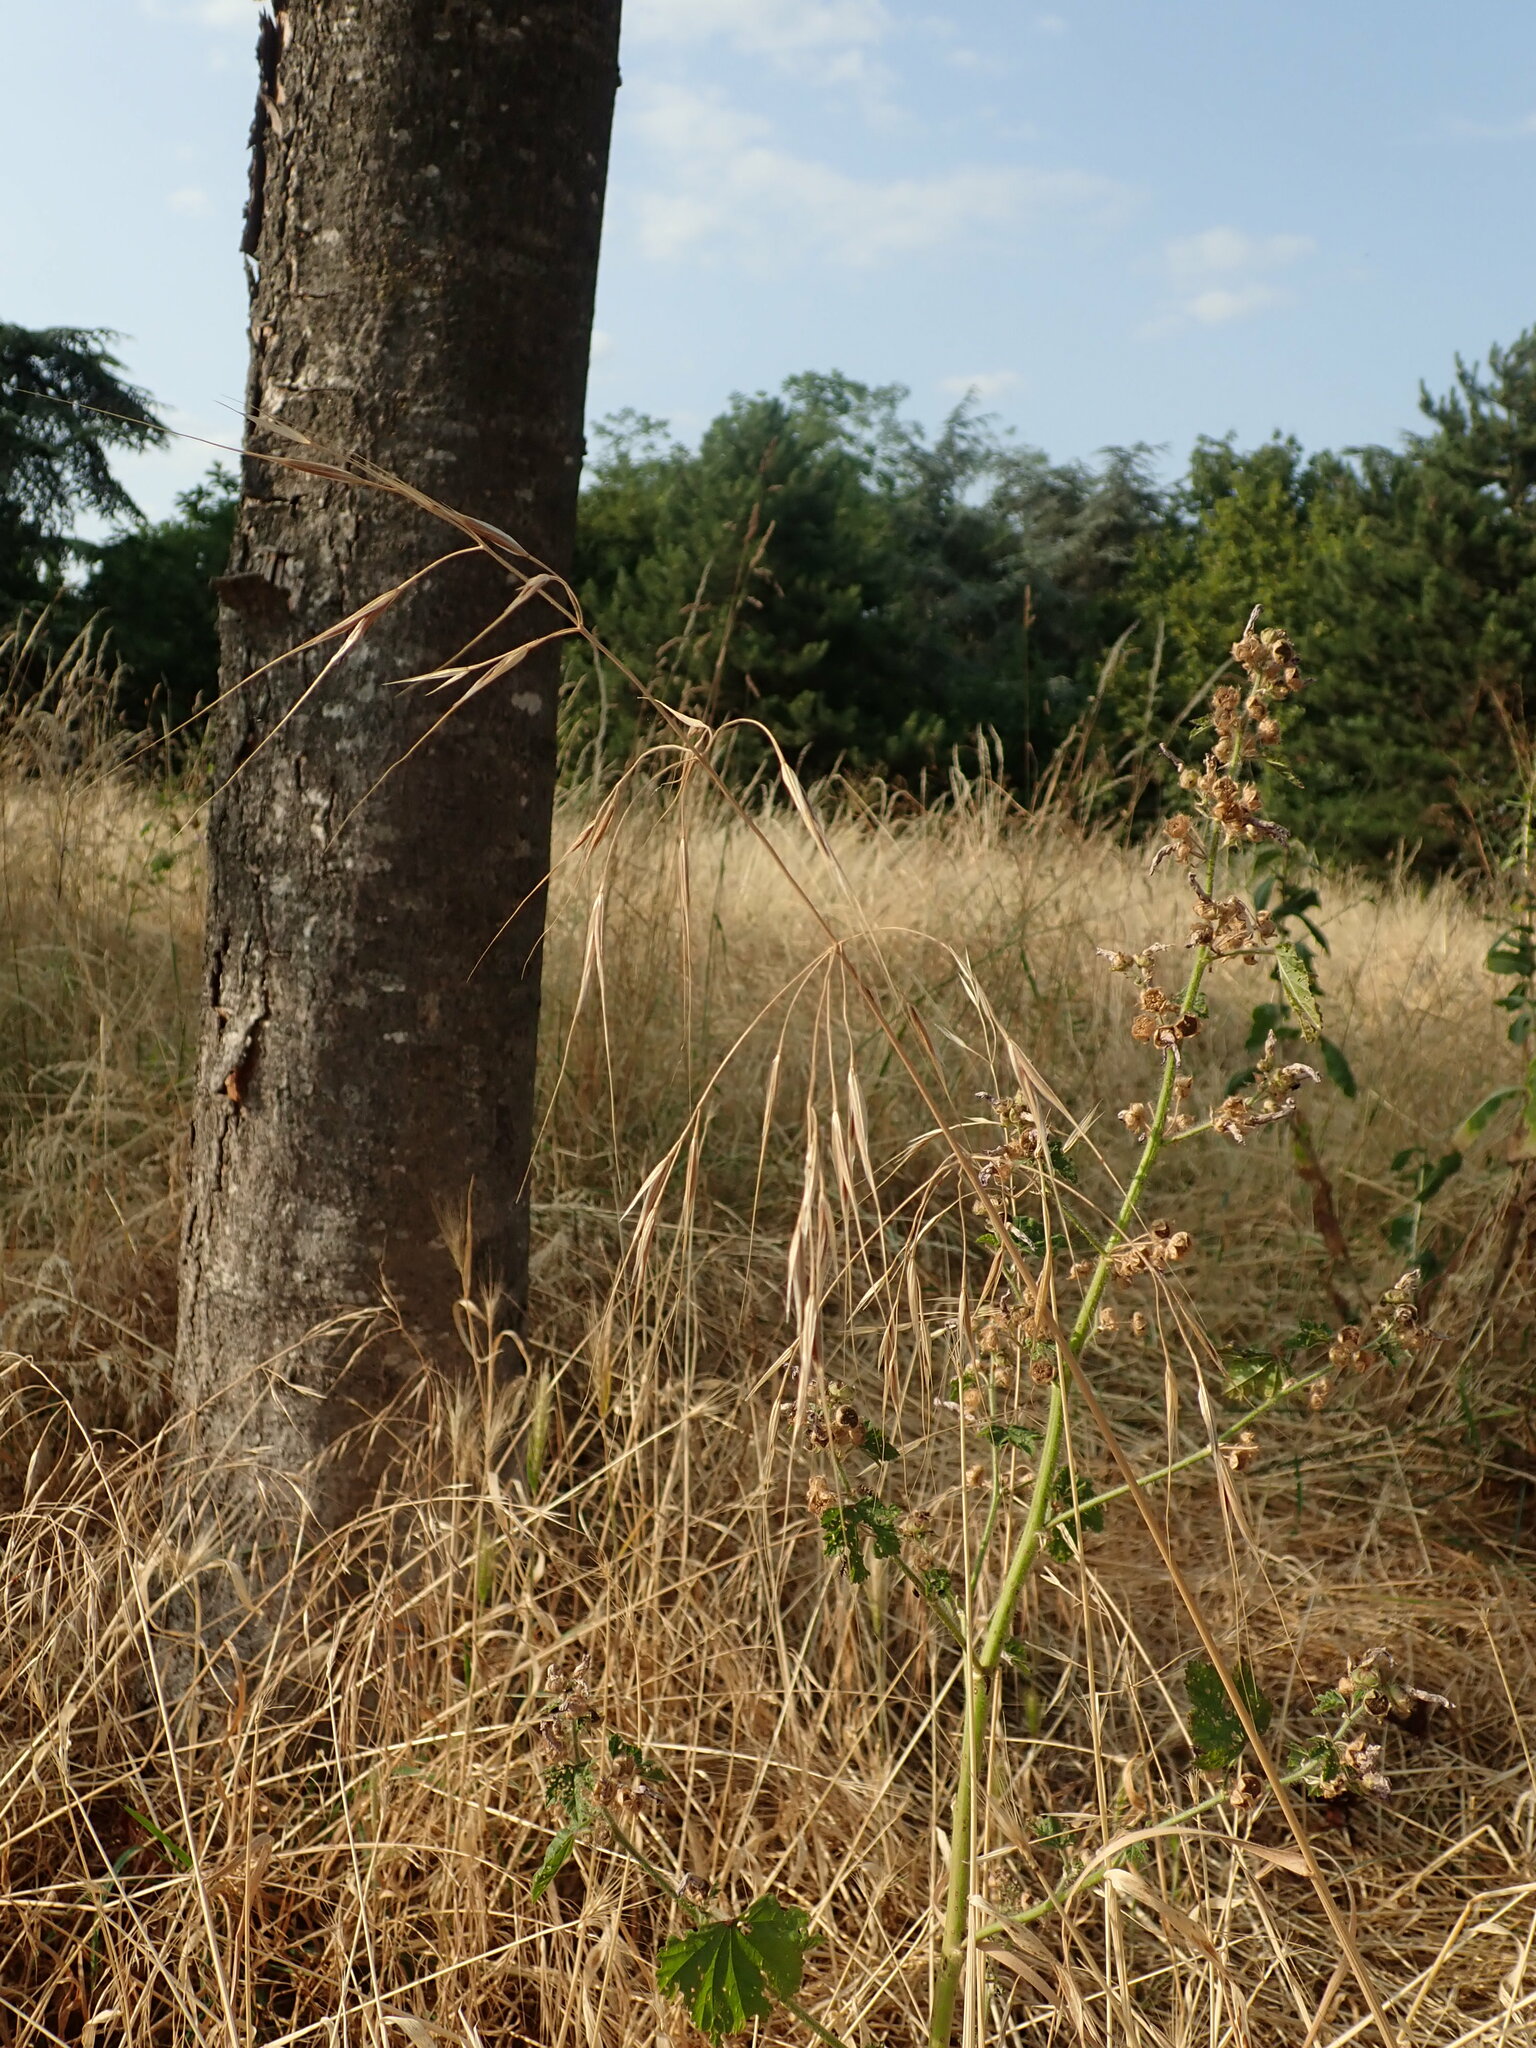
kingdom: Plantae
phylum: Tracheophyta
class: Liliopsida
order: Poales
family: Poaceae
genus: Bromus
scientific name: Bromus sterilis
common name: Poverty brome
